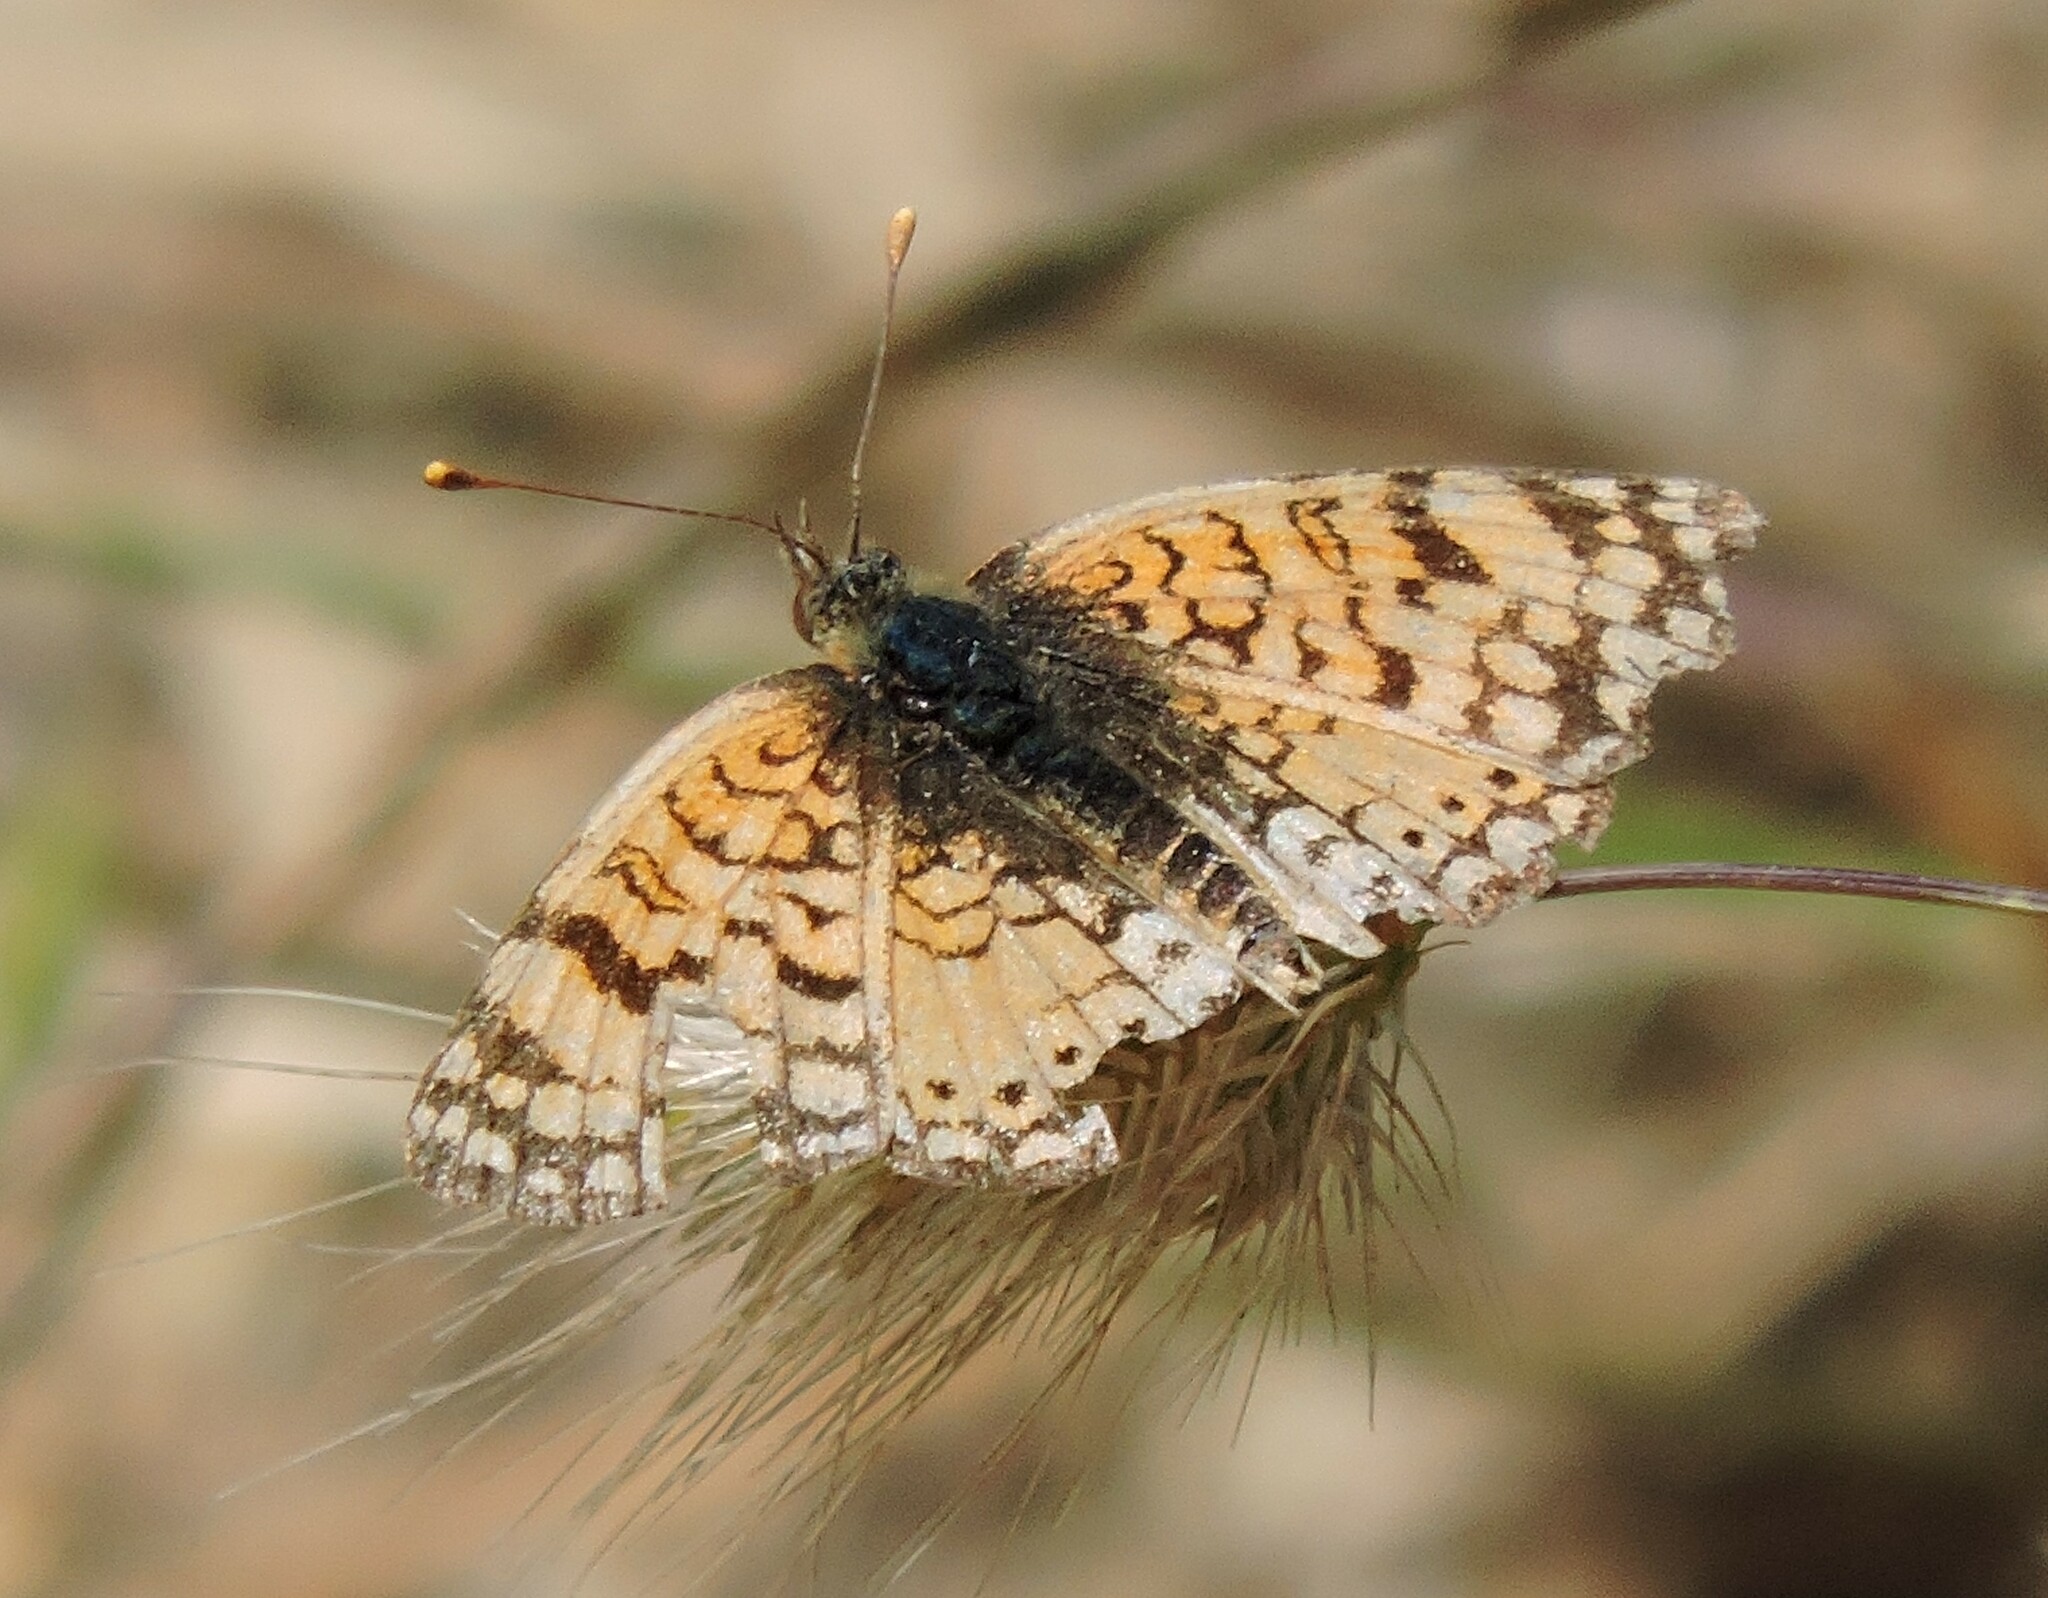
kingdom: Animalia
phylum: Arthropoda
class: Insecta
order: Lepidoptera
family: Nymphalidae
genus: Eresia
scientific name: Eresia aveyrona
